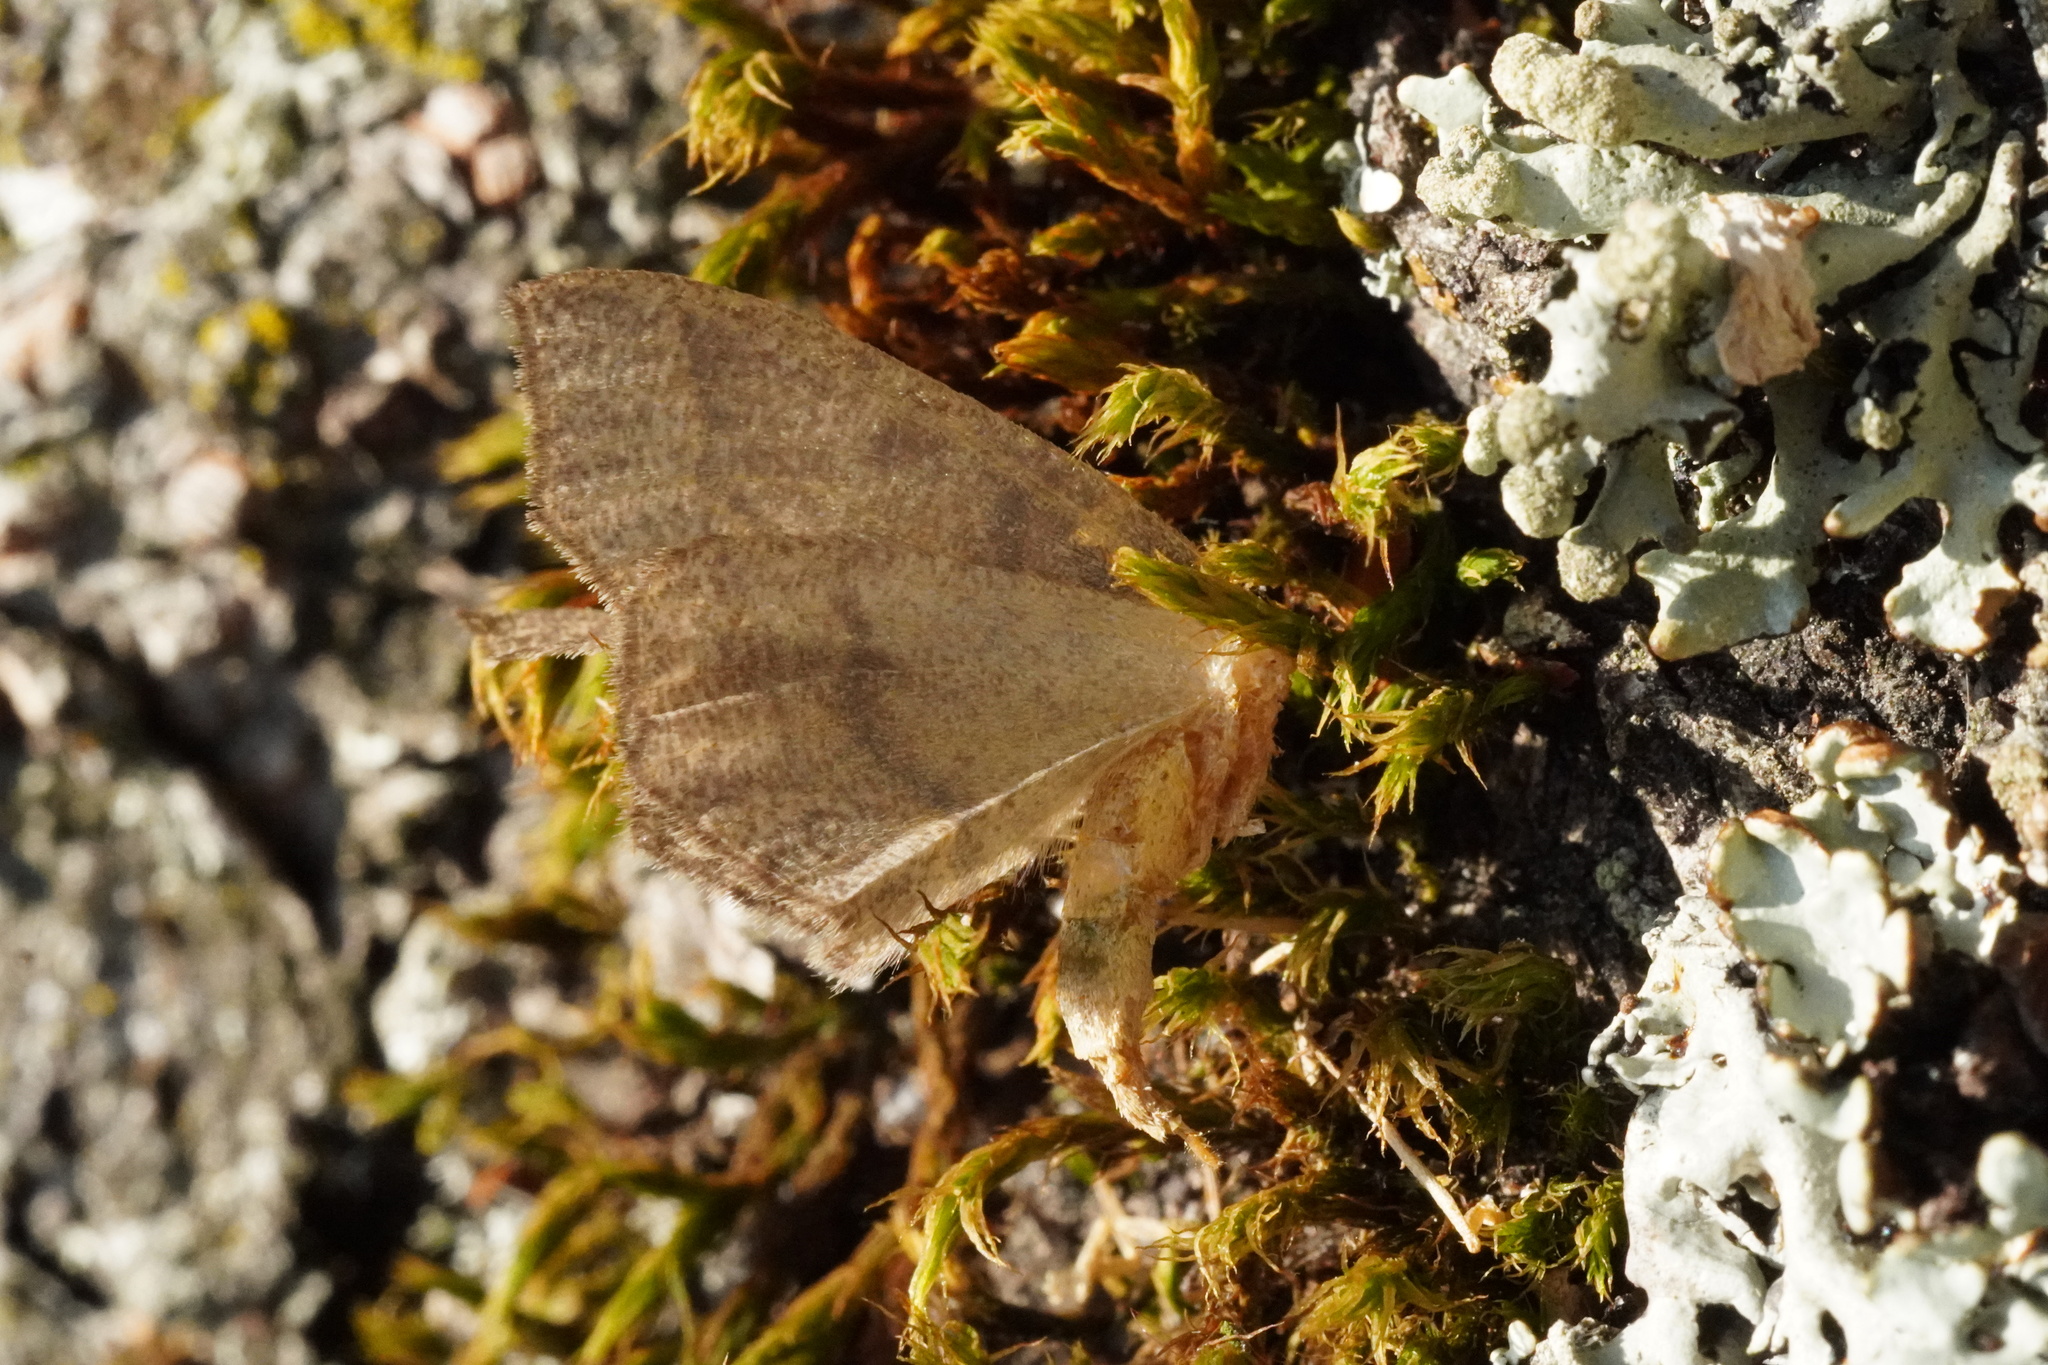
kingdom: Animalia
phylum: Arthropoda
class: Insecta
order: Lepidoptera
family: Geometridae
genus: Lambdina
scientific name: Lambdina fiscellaria
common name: Hemlock looper
